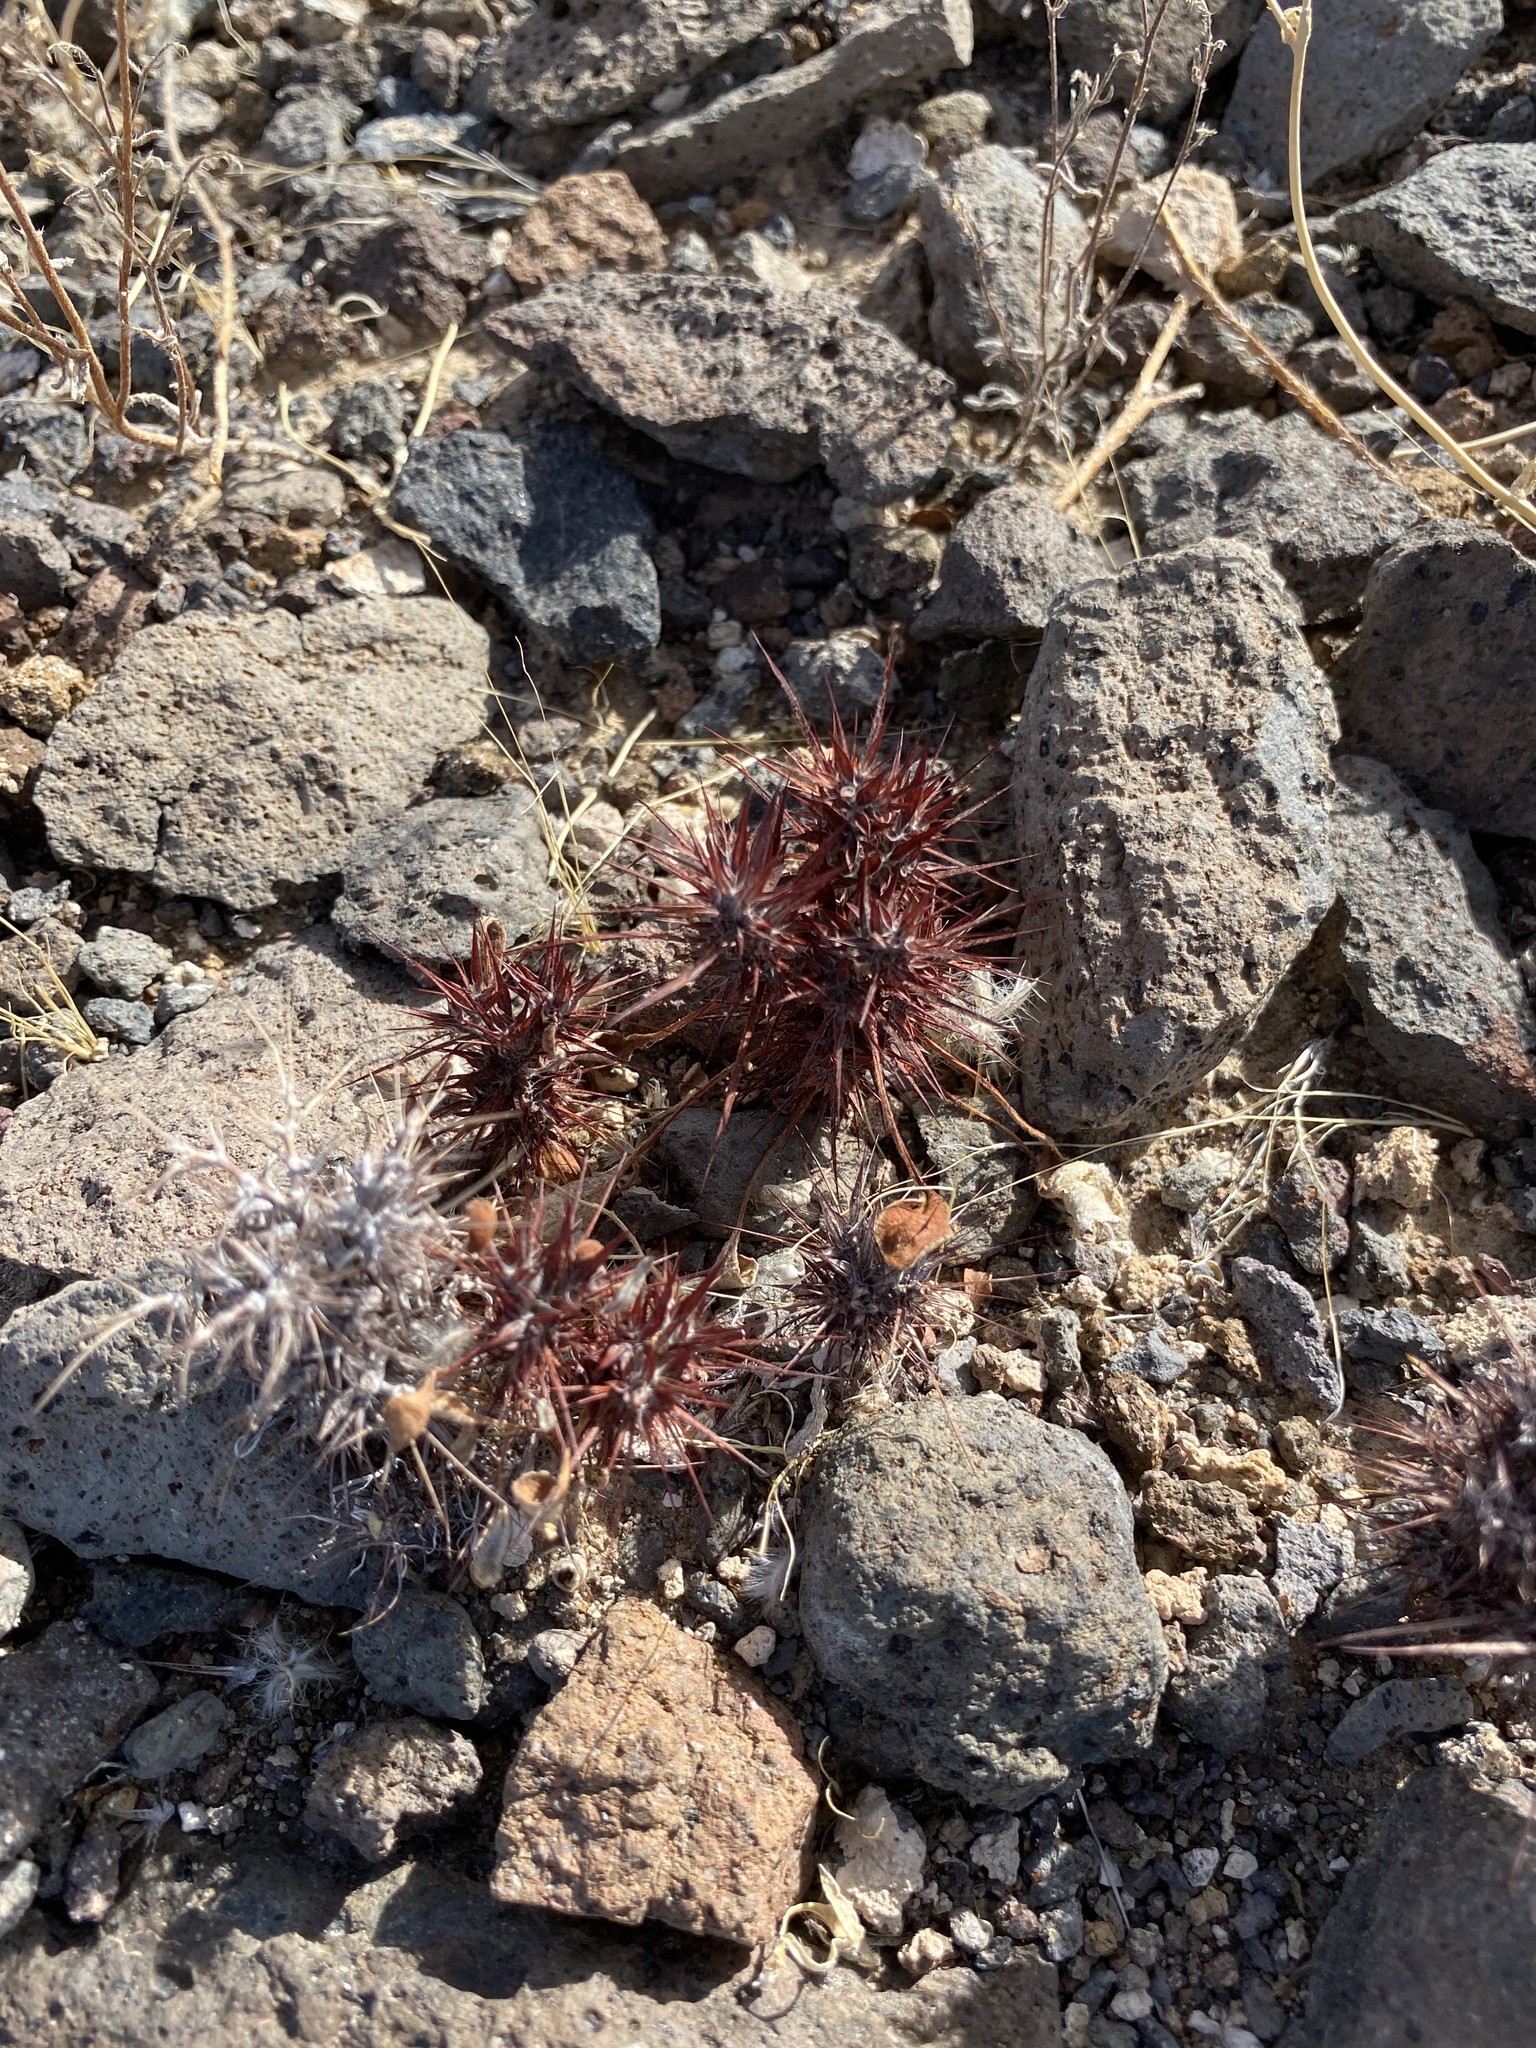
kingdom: Plantae
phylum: Tracheophyta
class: Magnoliopsida
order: Caryophyllales
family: Polygonaceae
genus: Chorizanthe
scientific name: Chorizanthe rigida
